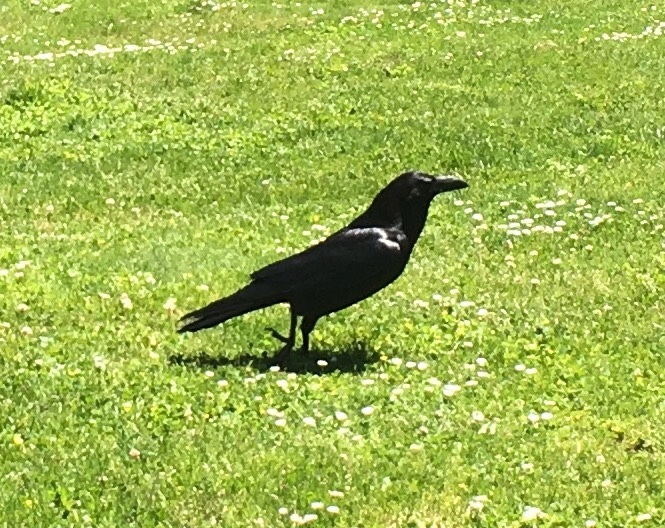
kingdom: Animalia
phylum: Chordata
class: Aves
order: Passeriformes
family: Corvidae
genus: Corvus
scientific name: Corvus corax
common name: Common raven
